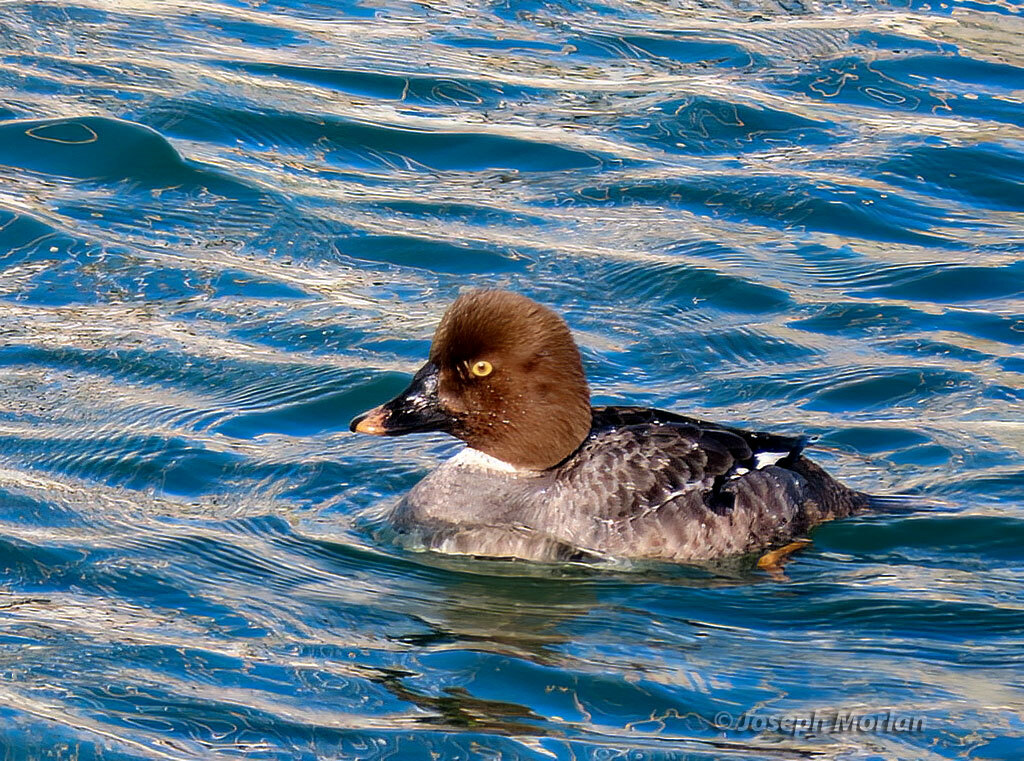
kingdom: Animalia
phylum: Chordata
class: Aves
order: Anseriformes
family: Anatidae
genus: Bucephala
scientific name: Bucephala clangula
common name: Common goldeneye
